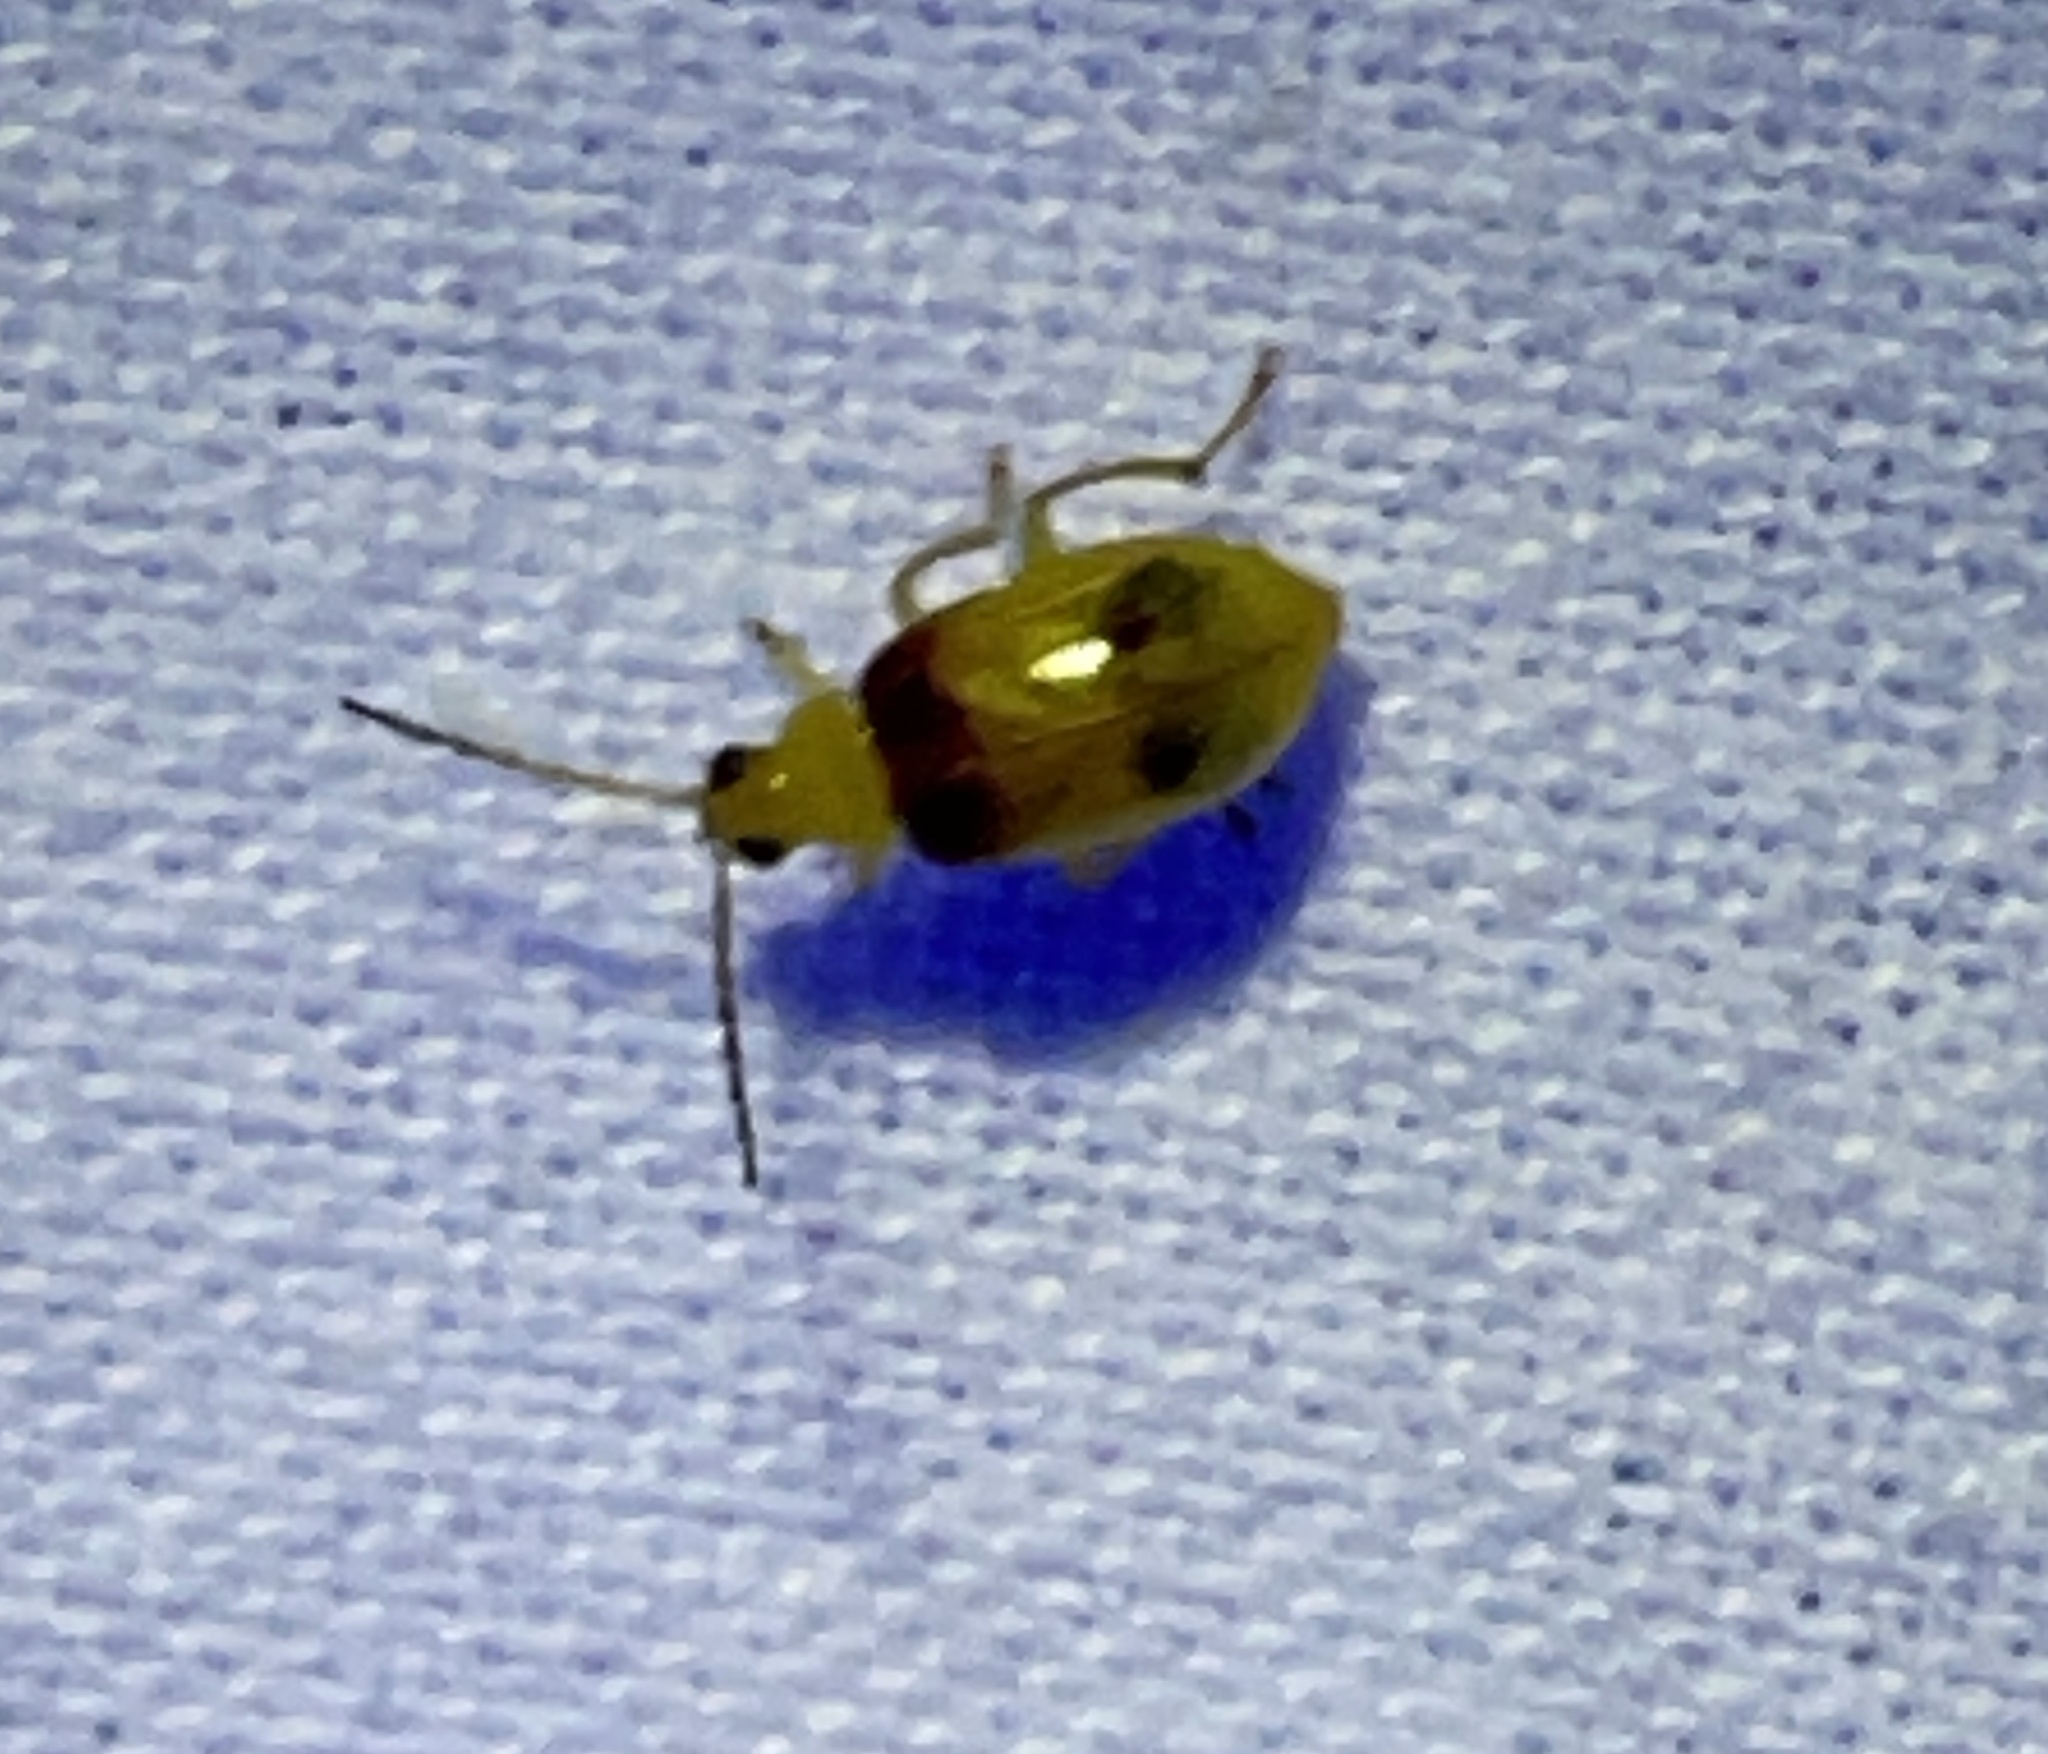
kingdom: Animalia
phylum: Arthropoda
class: Insecta
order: Coleoptera
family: Chrysomelidae
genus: Monolepta
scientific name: Monolepta
